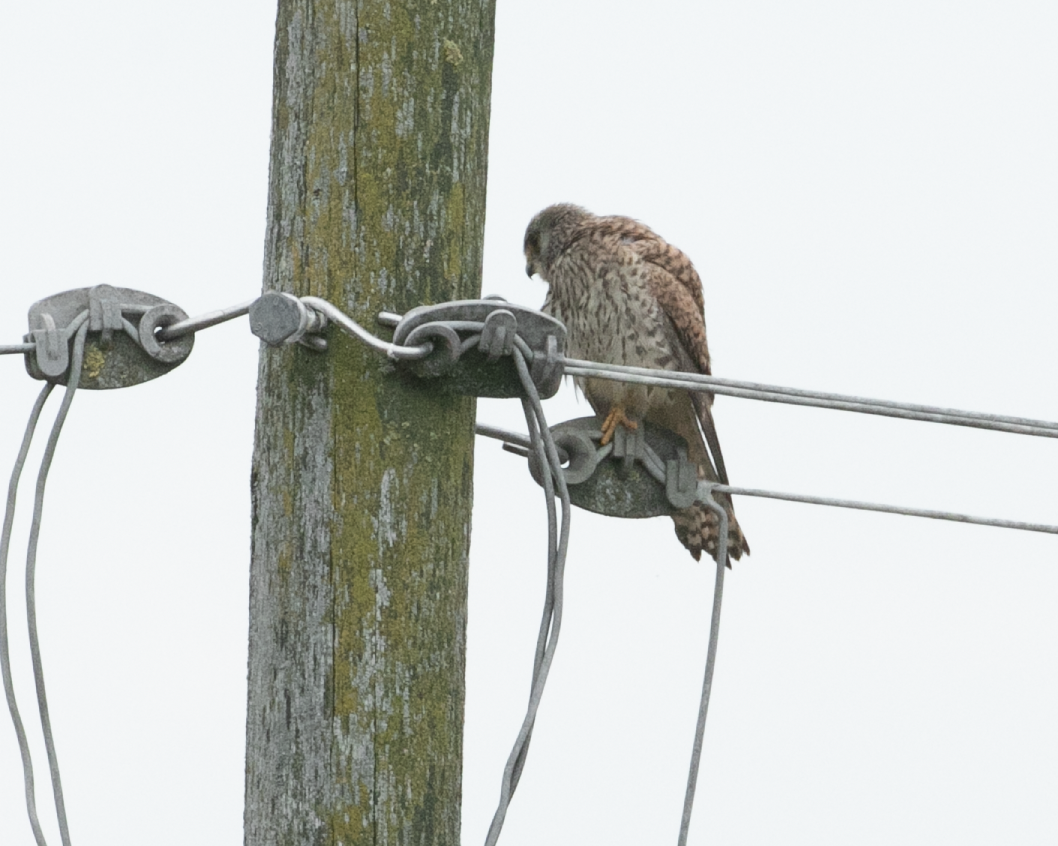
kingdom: Animalia
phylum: Chordata
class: Aves
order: Falconiformes
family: Falconidae
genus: Falco
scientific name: Falco tinnunculus
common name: Common kestrel
